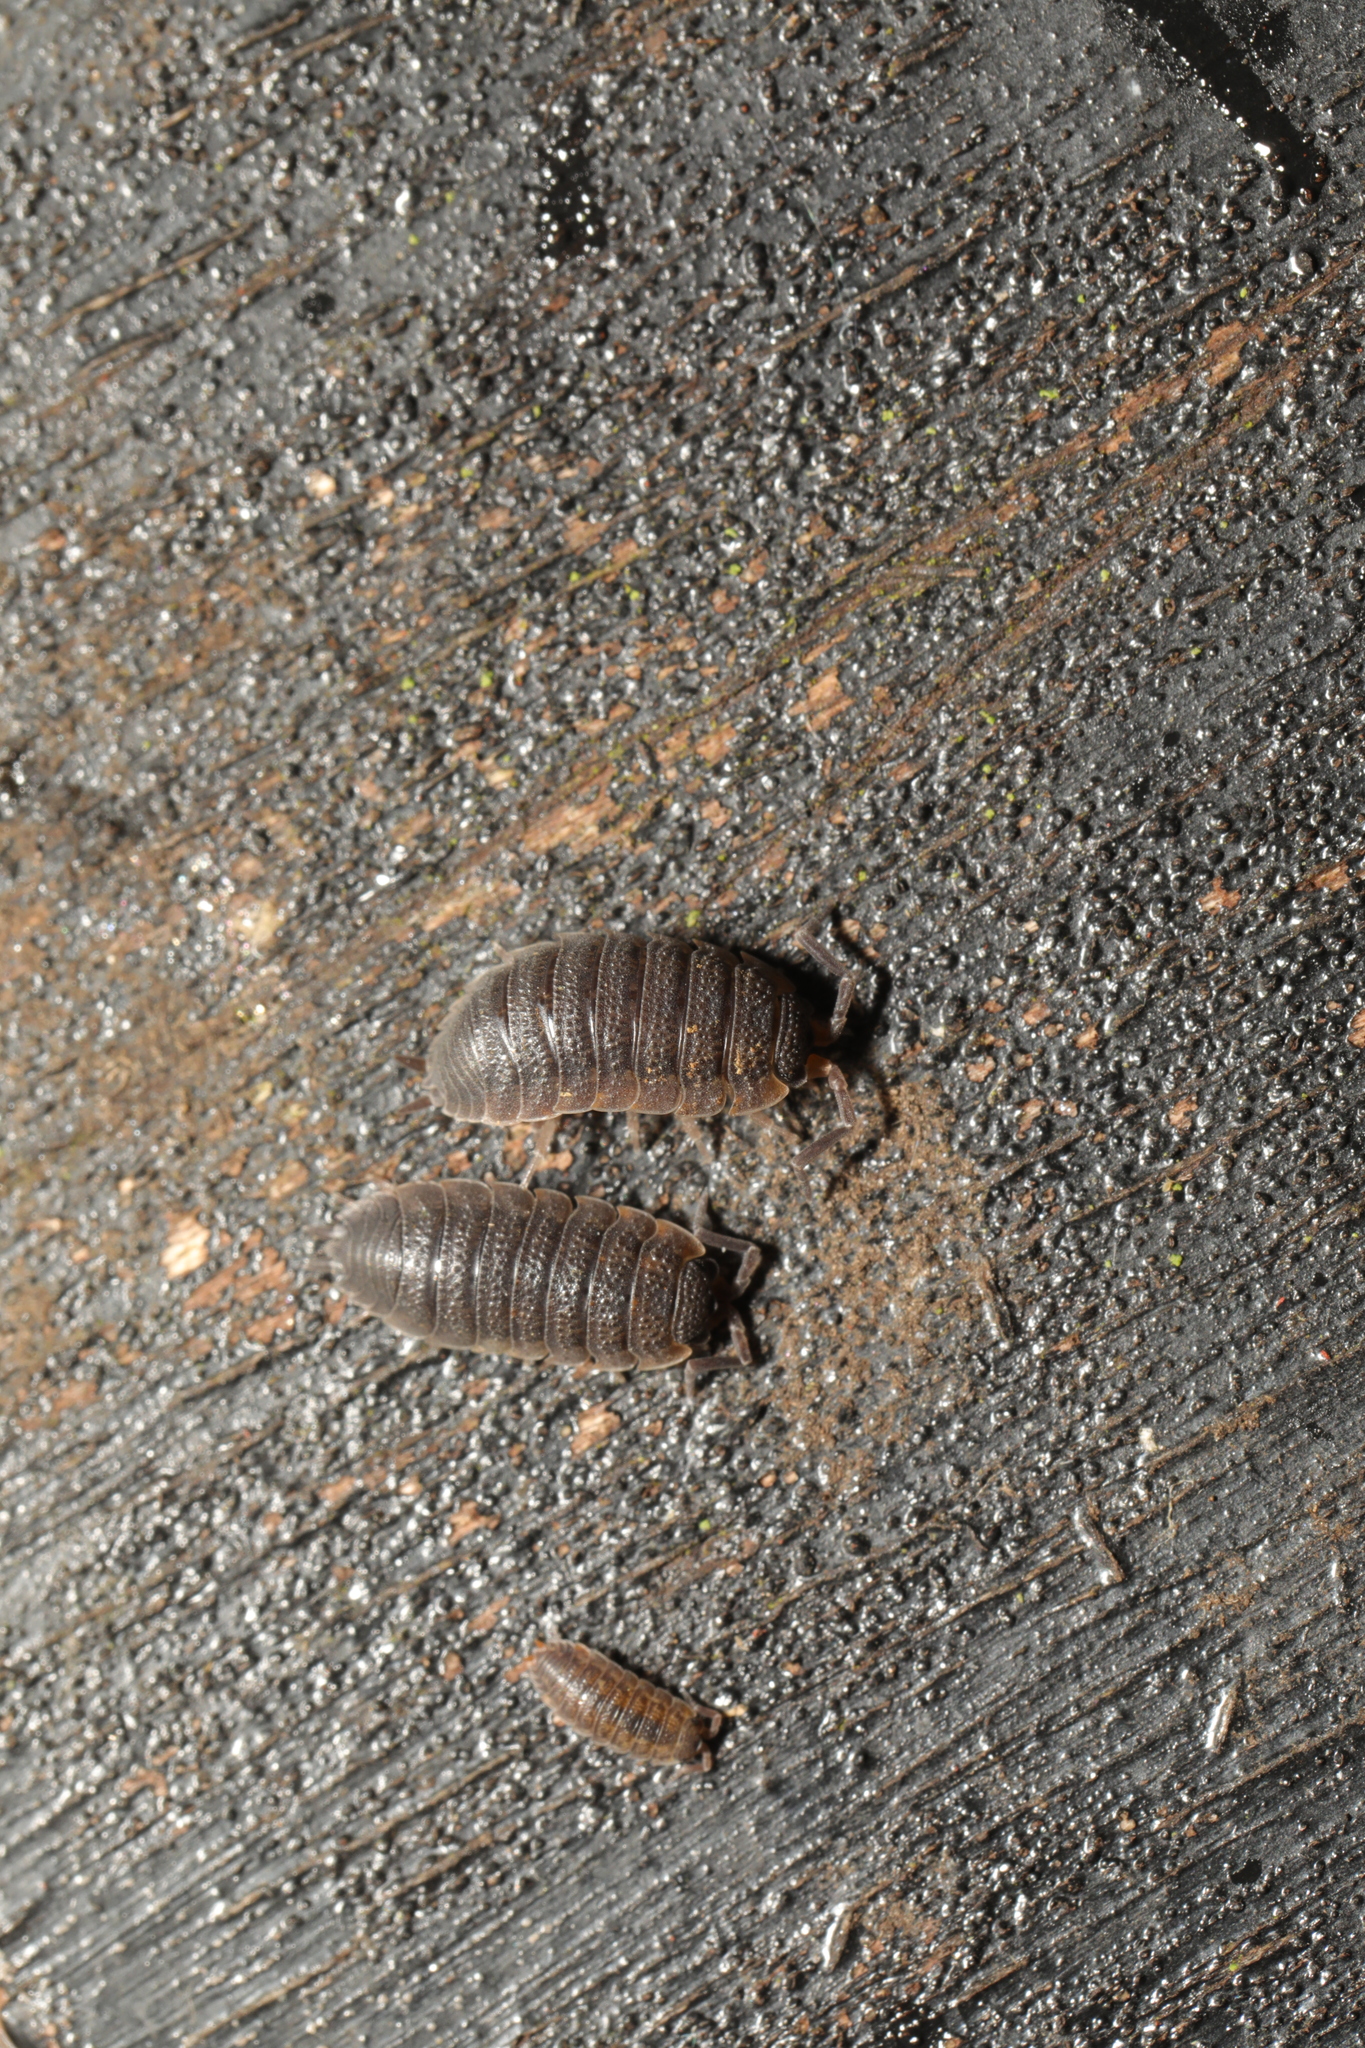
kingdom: Animalia
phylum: Arthropoda
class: Malacostraca
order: Isopoda
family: Porcellionidae
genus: Porcellio
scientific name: Porcellio scaber
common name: Common rough woodlouse
